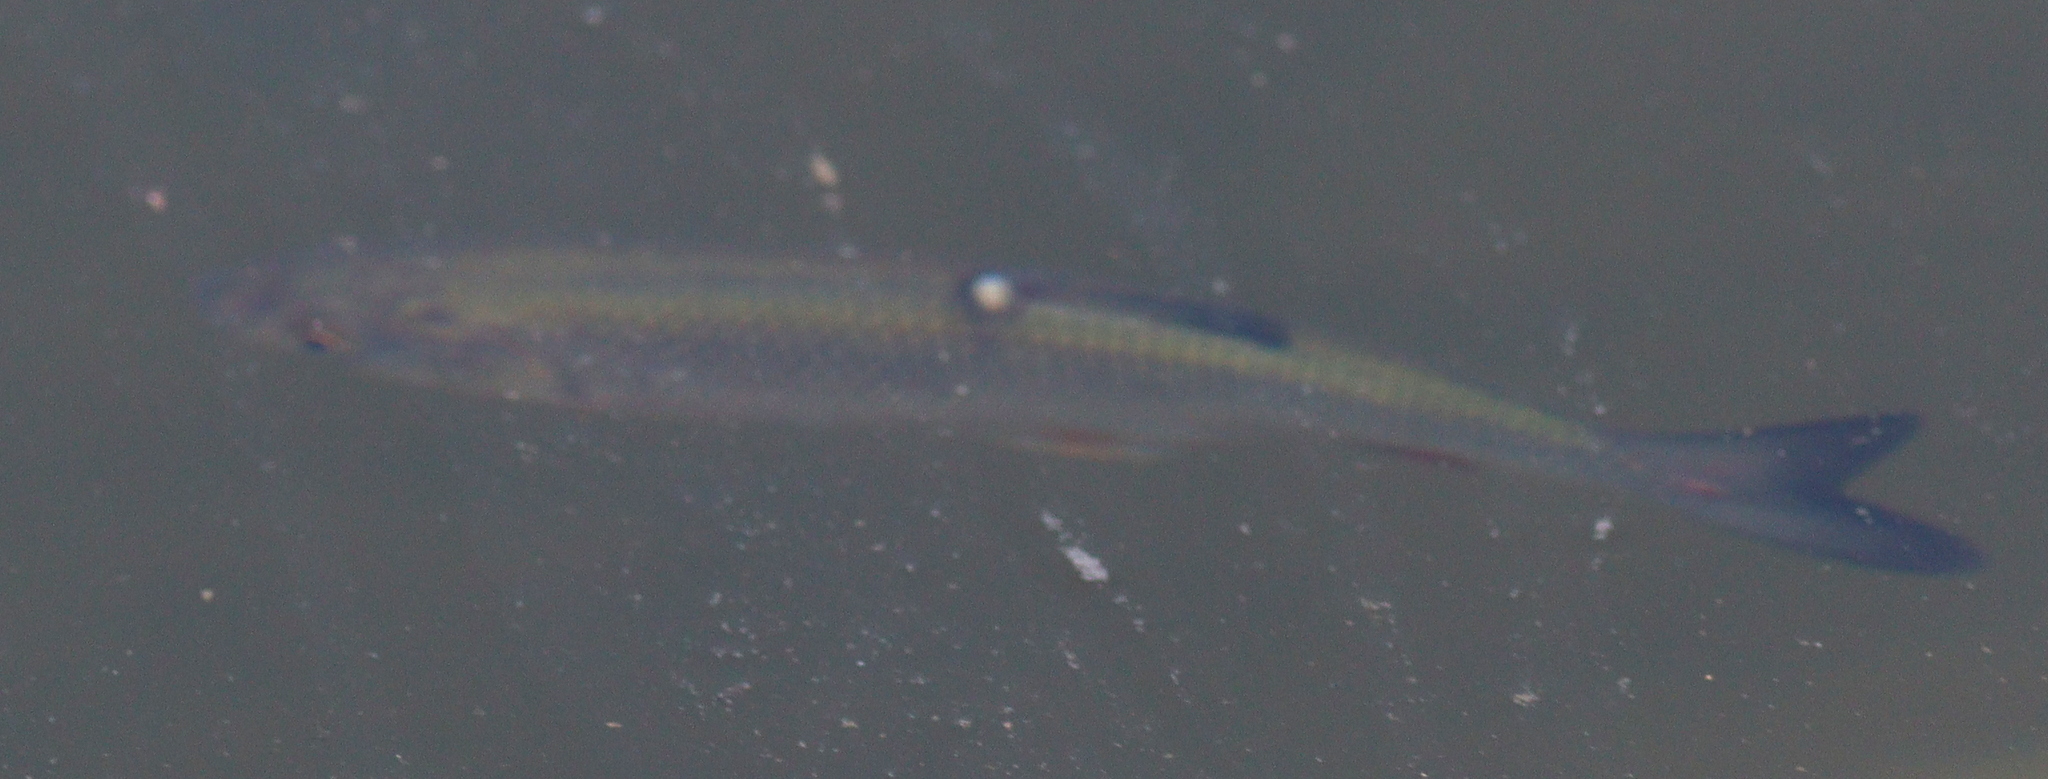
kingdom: Animalia
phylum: Chordata
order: Cypriniformes
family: Cyprinidae
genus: Squalius
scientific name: Squalius cephalus
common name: Chub
